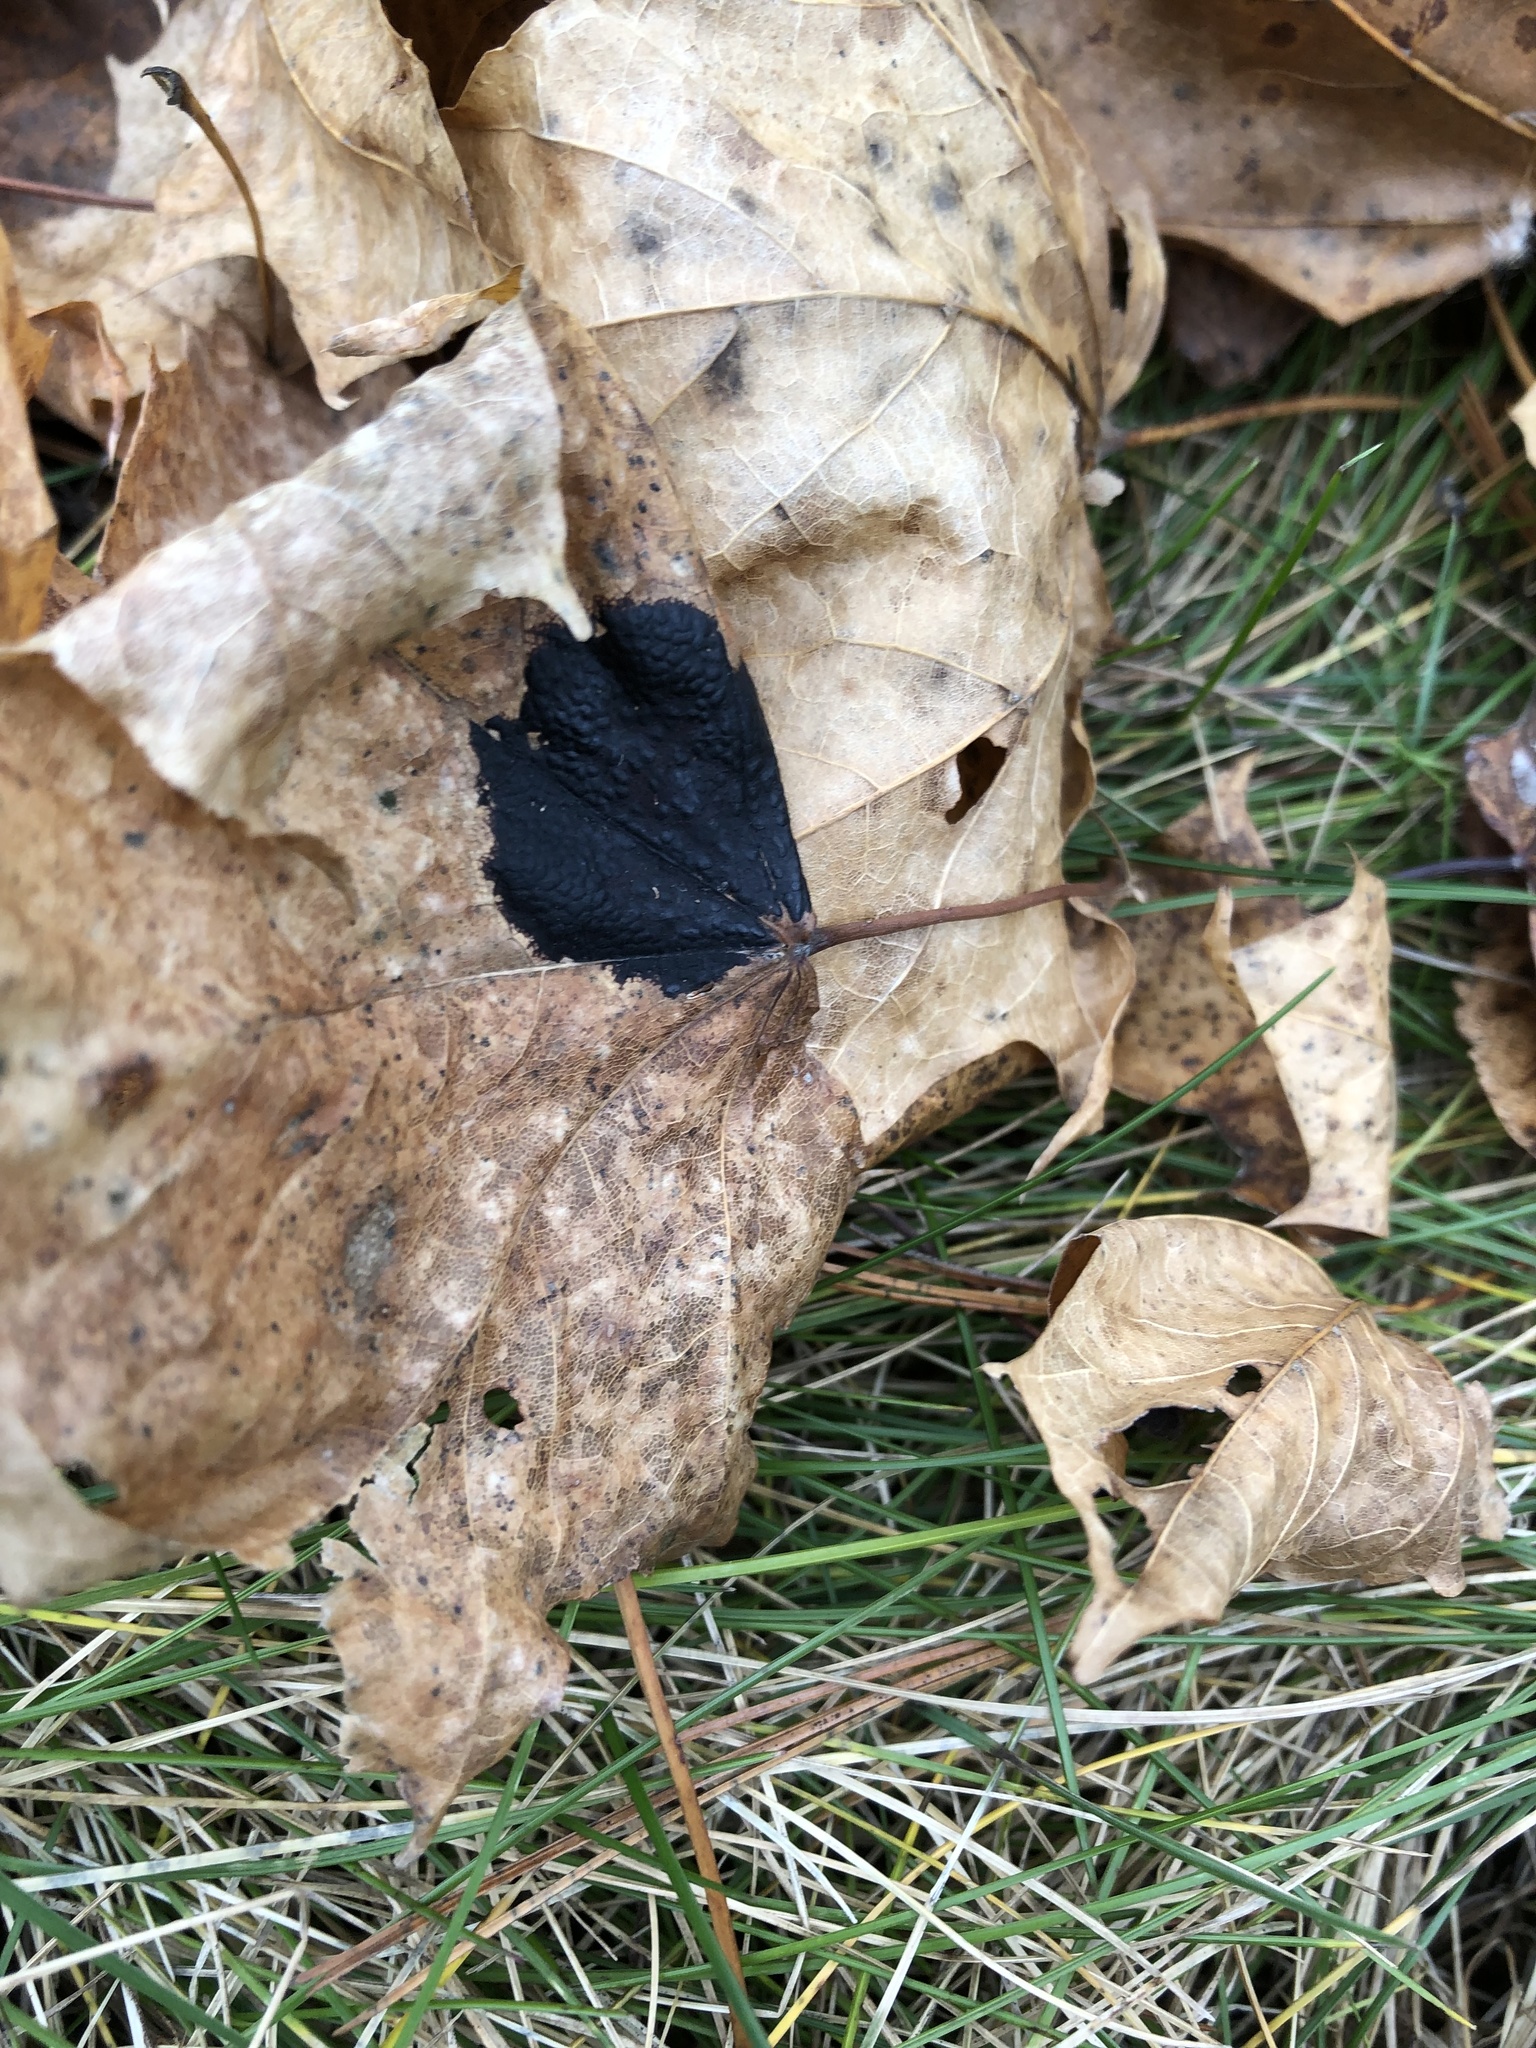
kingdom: Fungi
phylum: Ascomycota
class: Leotiomycetes
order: Rhytismatales
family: Rhytismataceae
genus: Rhytisma
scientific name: Rhytisma acerinum
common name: European tar spot
